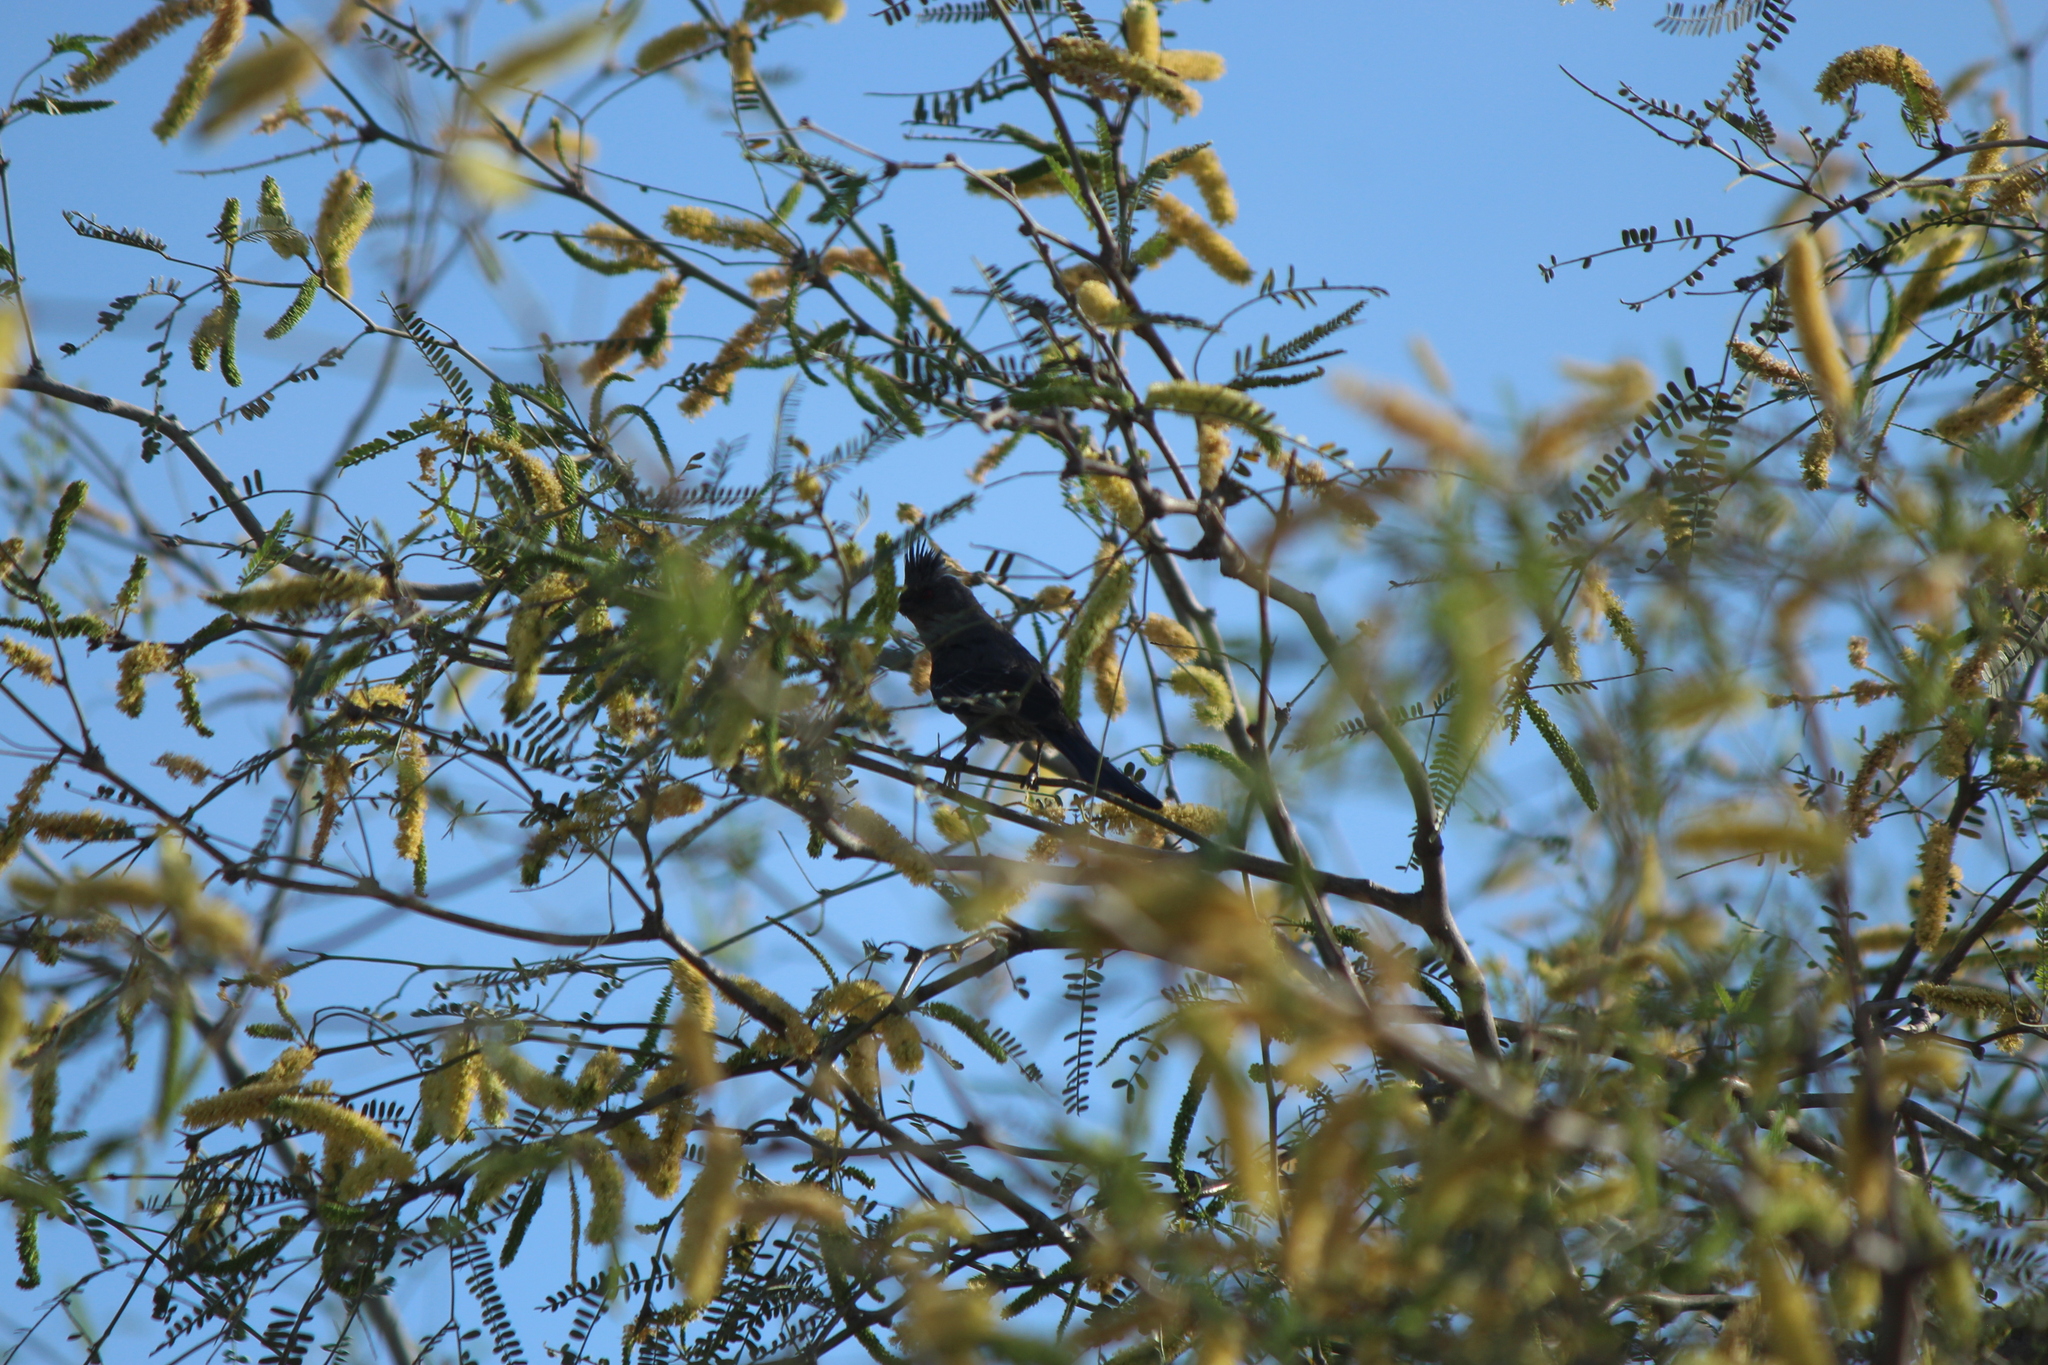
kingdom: Animalia
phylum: Chordata
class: Aves
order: Passeriformes
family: Ptilogonatidae
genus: Phainopepla
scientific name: Phainopepla nitens
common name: Phainopepla
